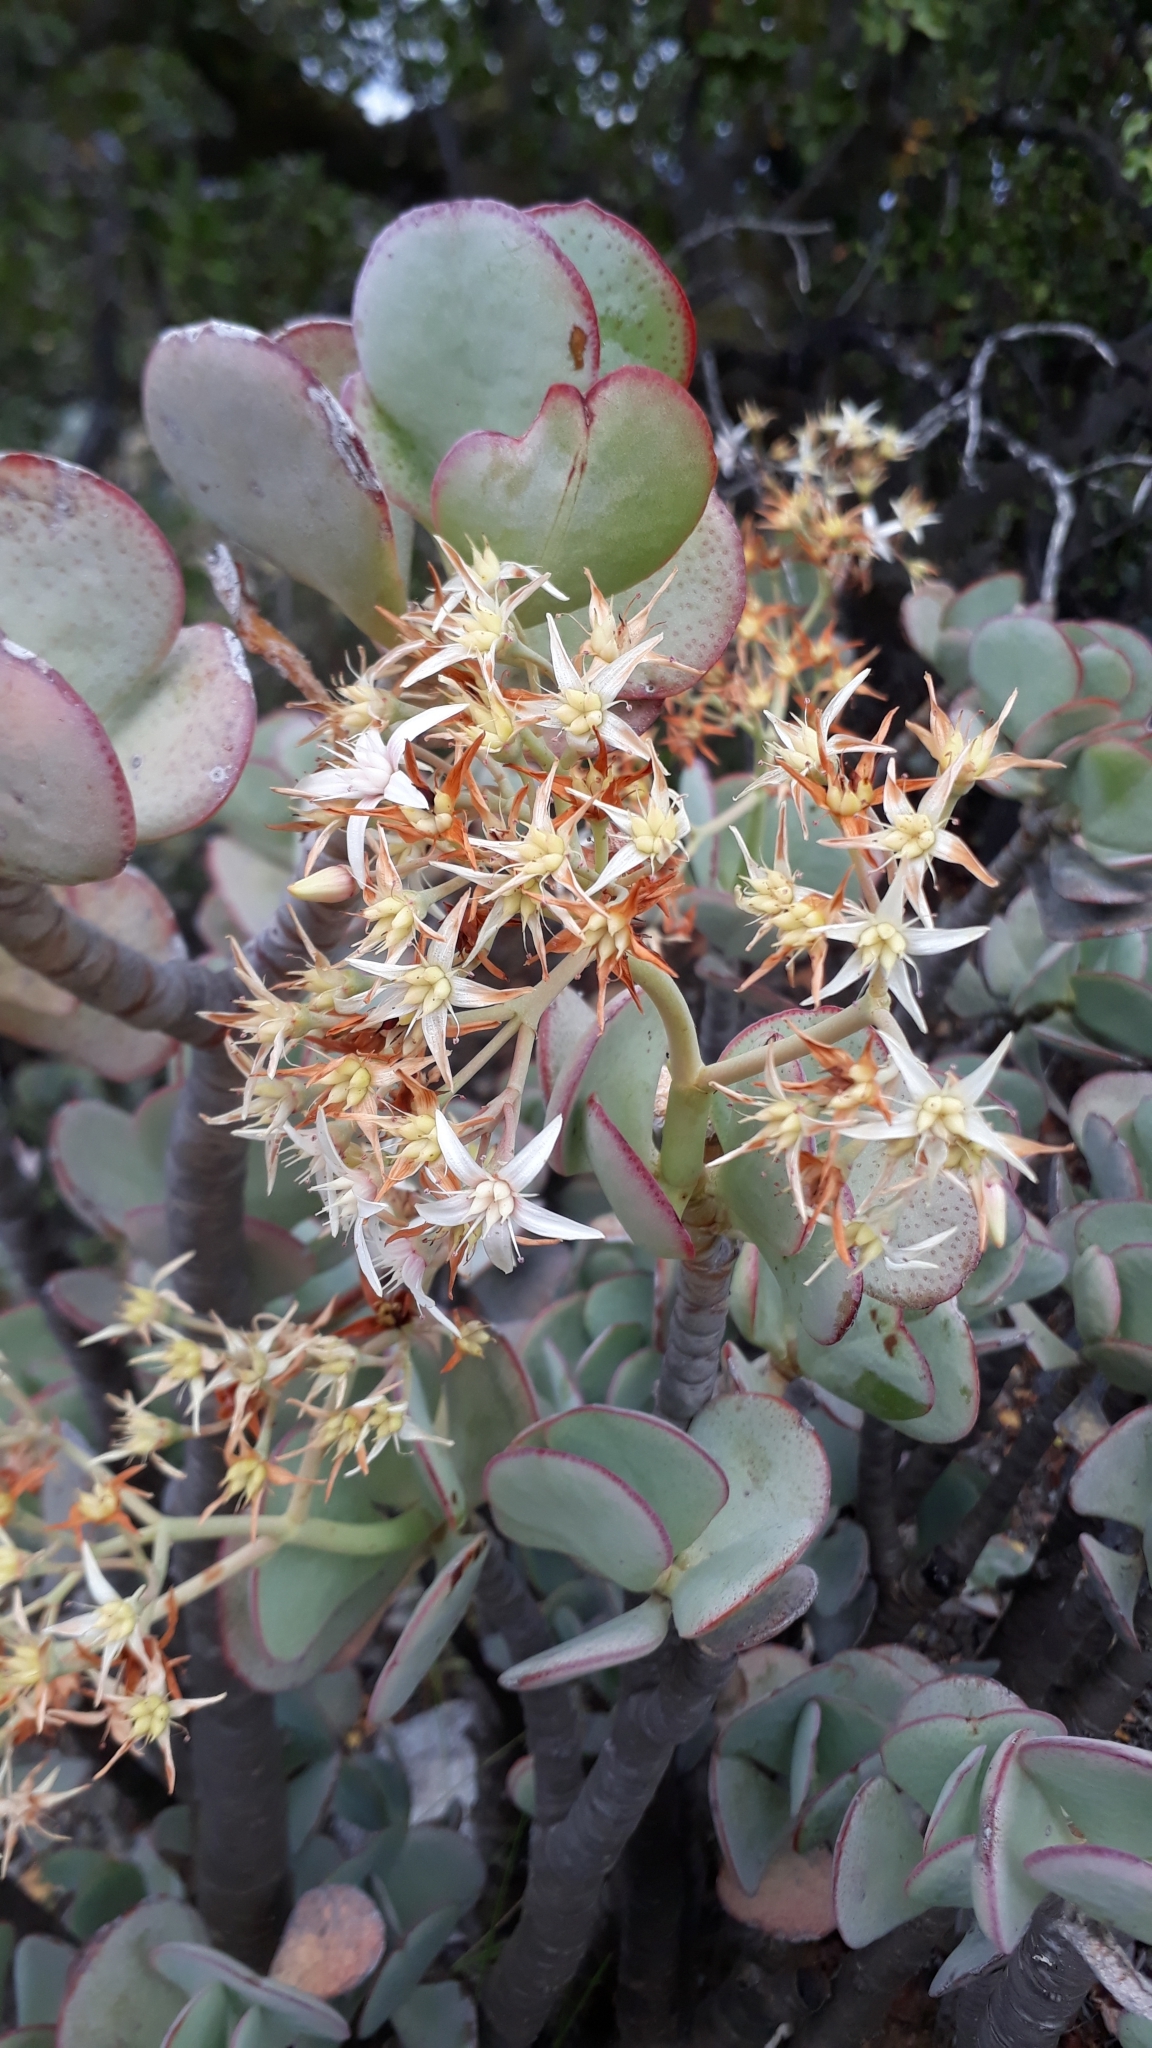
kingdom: Plantae
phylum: Tracheophyta
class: Magnoliopsida
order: Saxifragales
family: Crassulaceae
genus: Crassula
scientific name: Crassula arborescens
